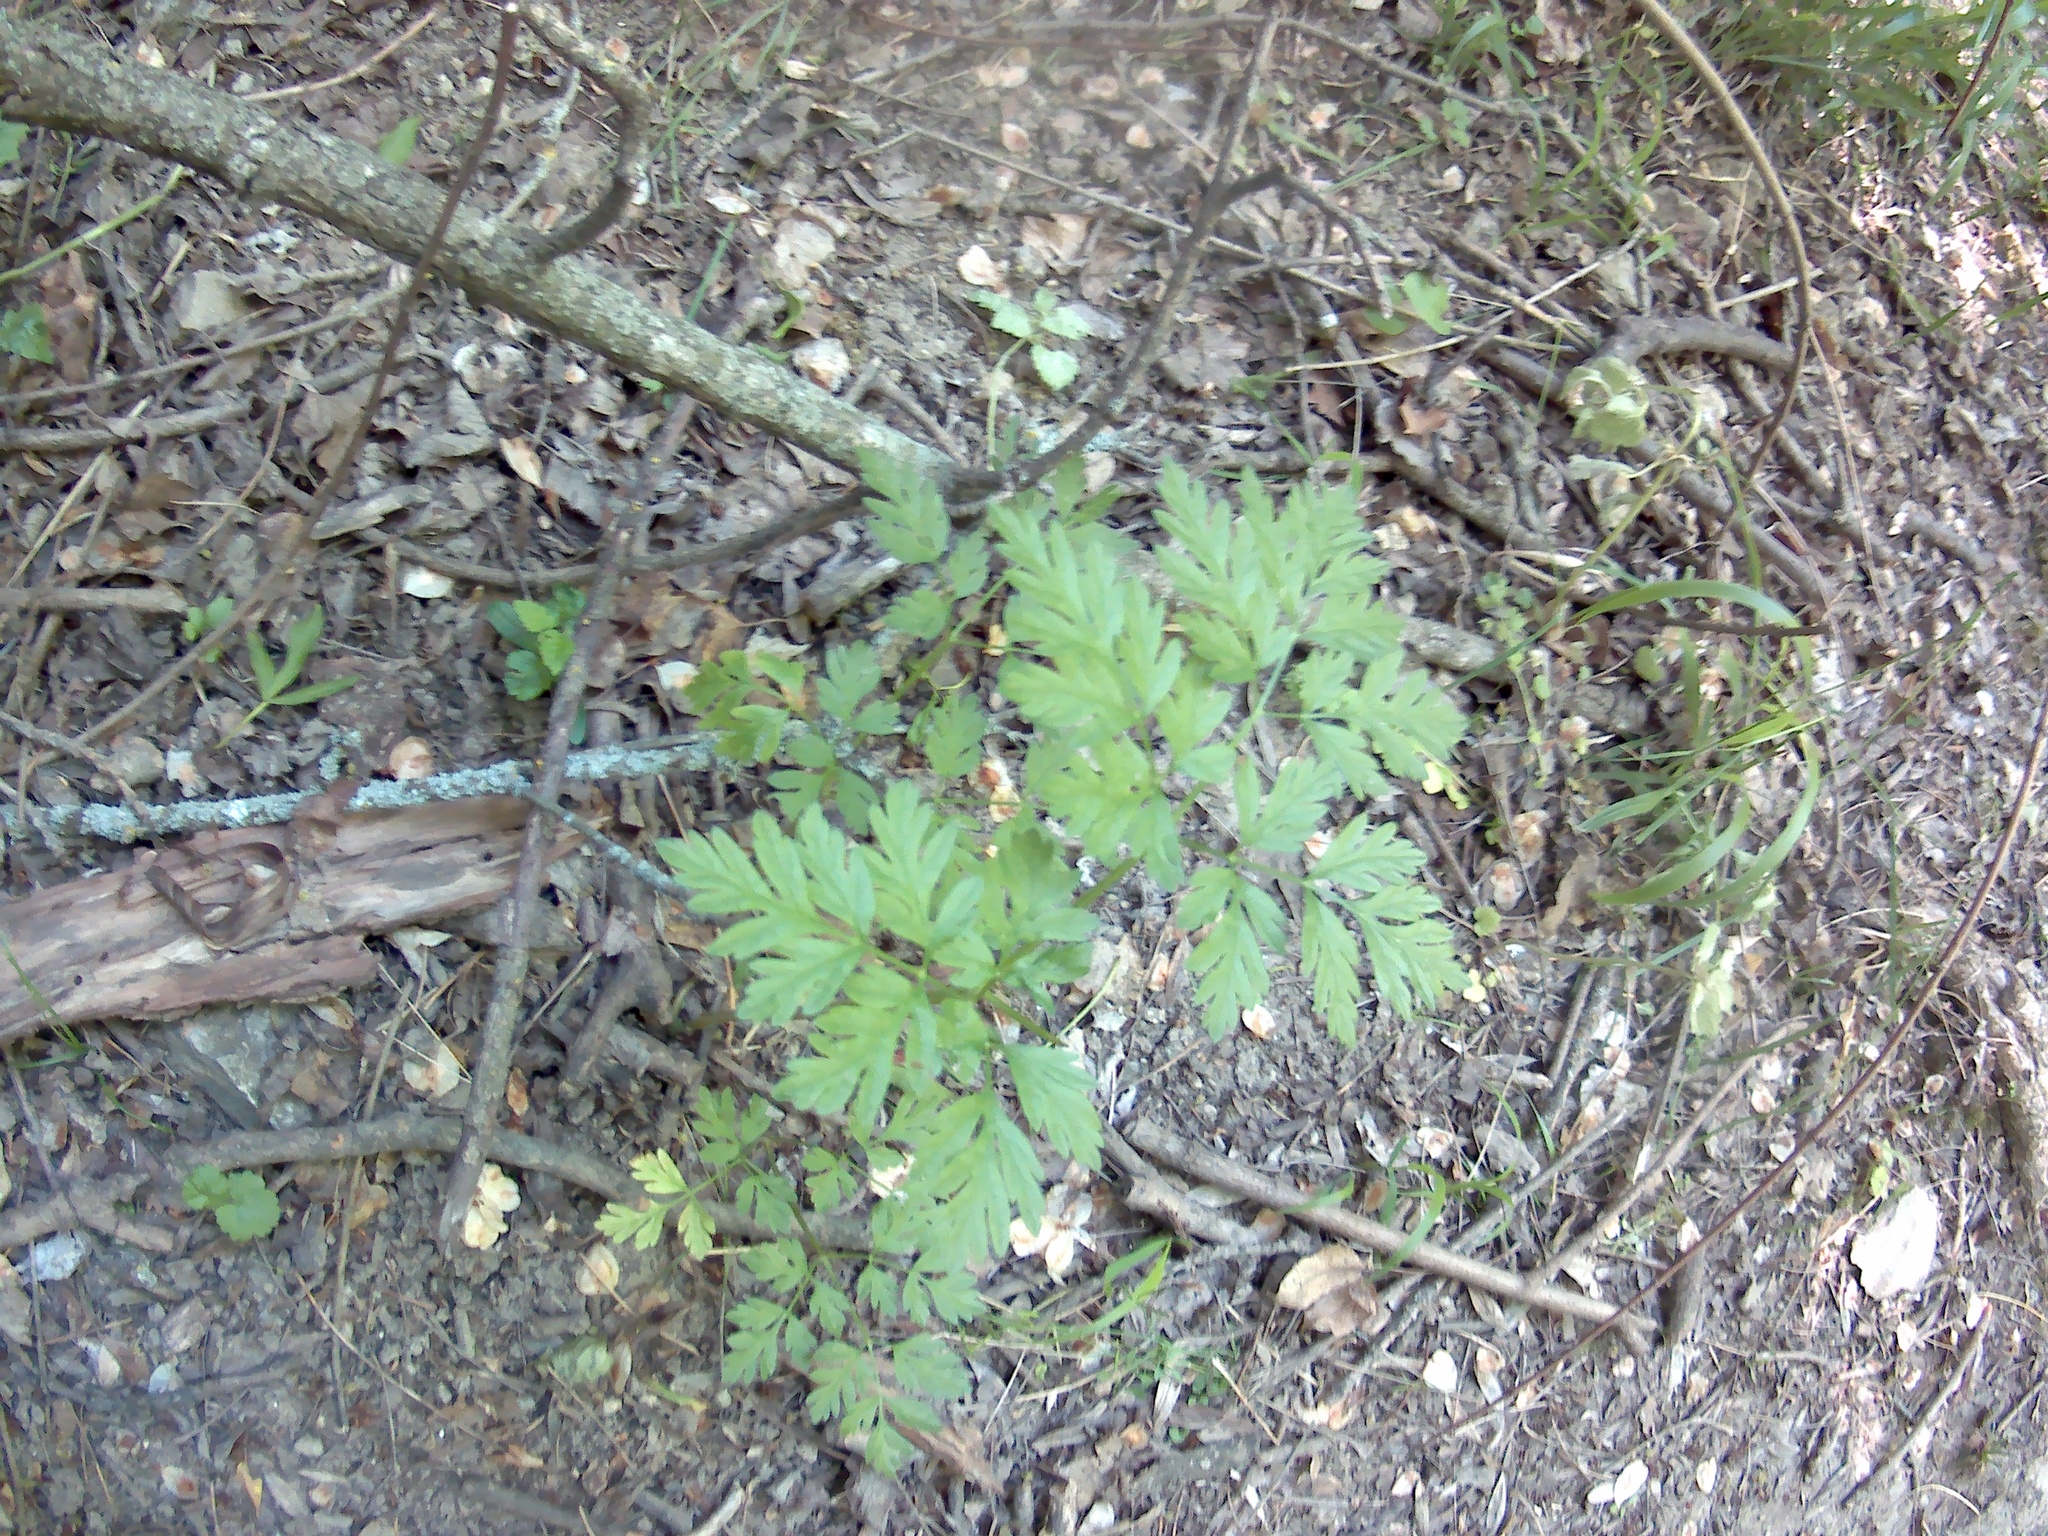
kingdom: Plantae
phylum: Tracheophyta
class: Magnoliopsida
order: Apiales
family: Apiaceae
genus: Physospermum
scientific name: Physospermum cornubiense
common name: Bladderseed
